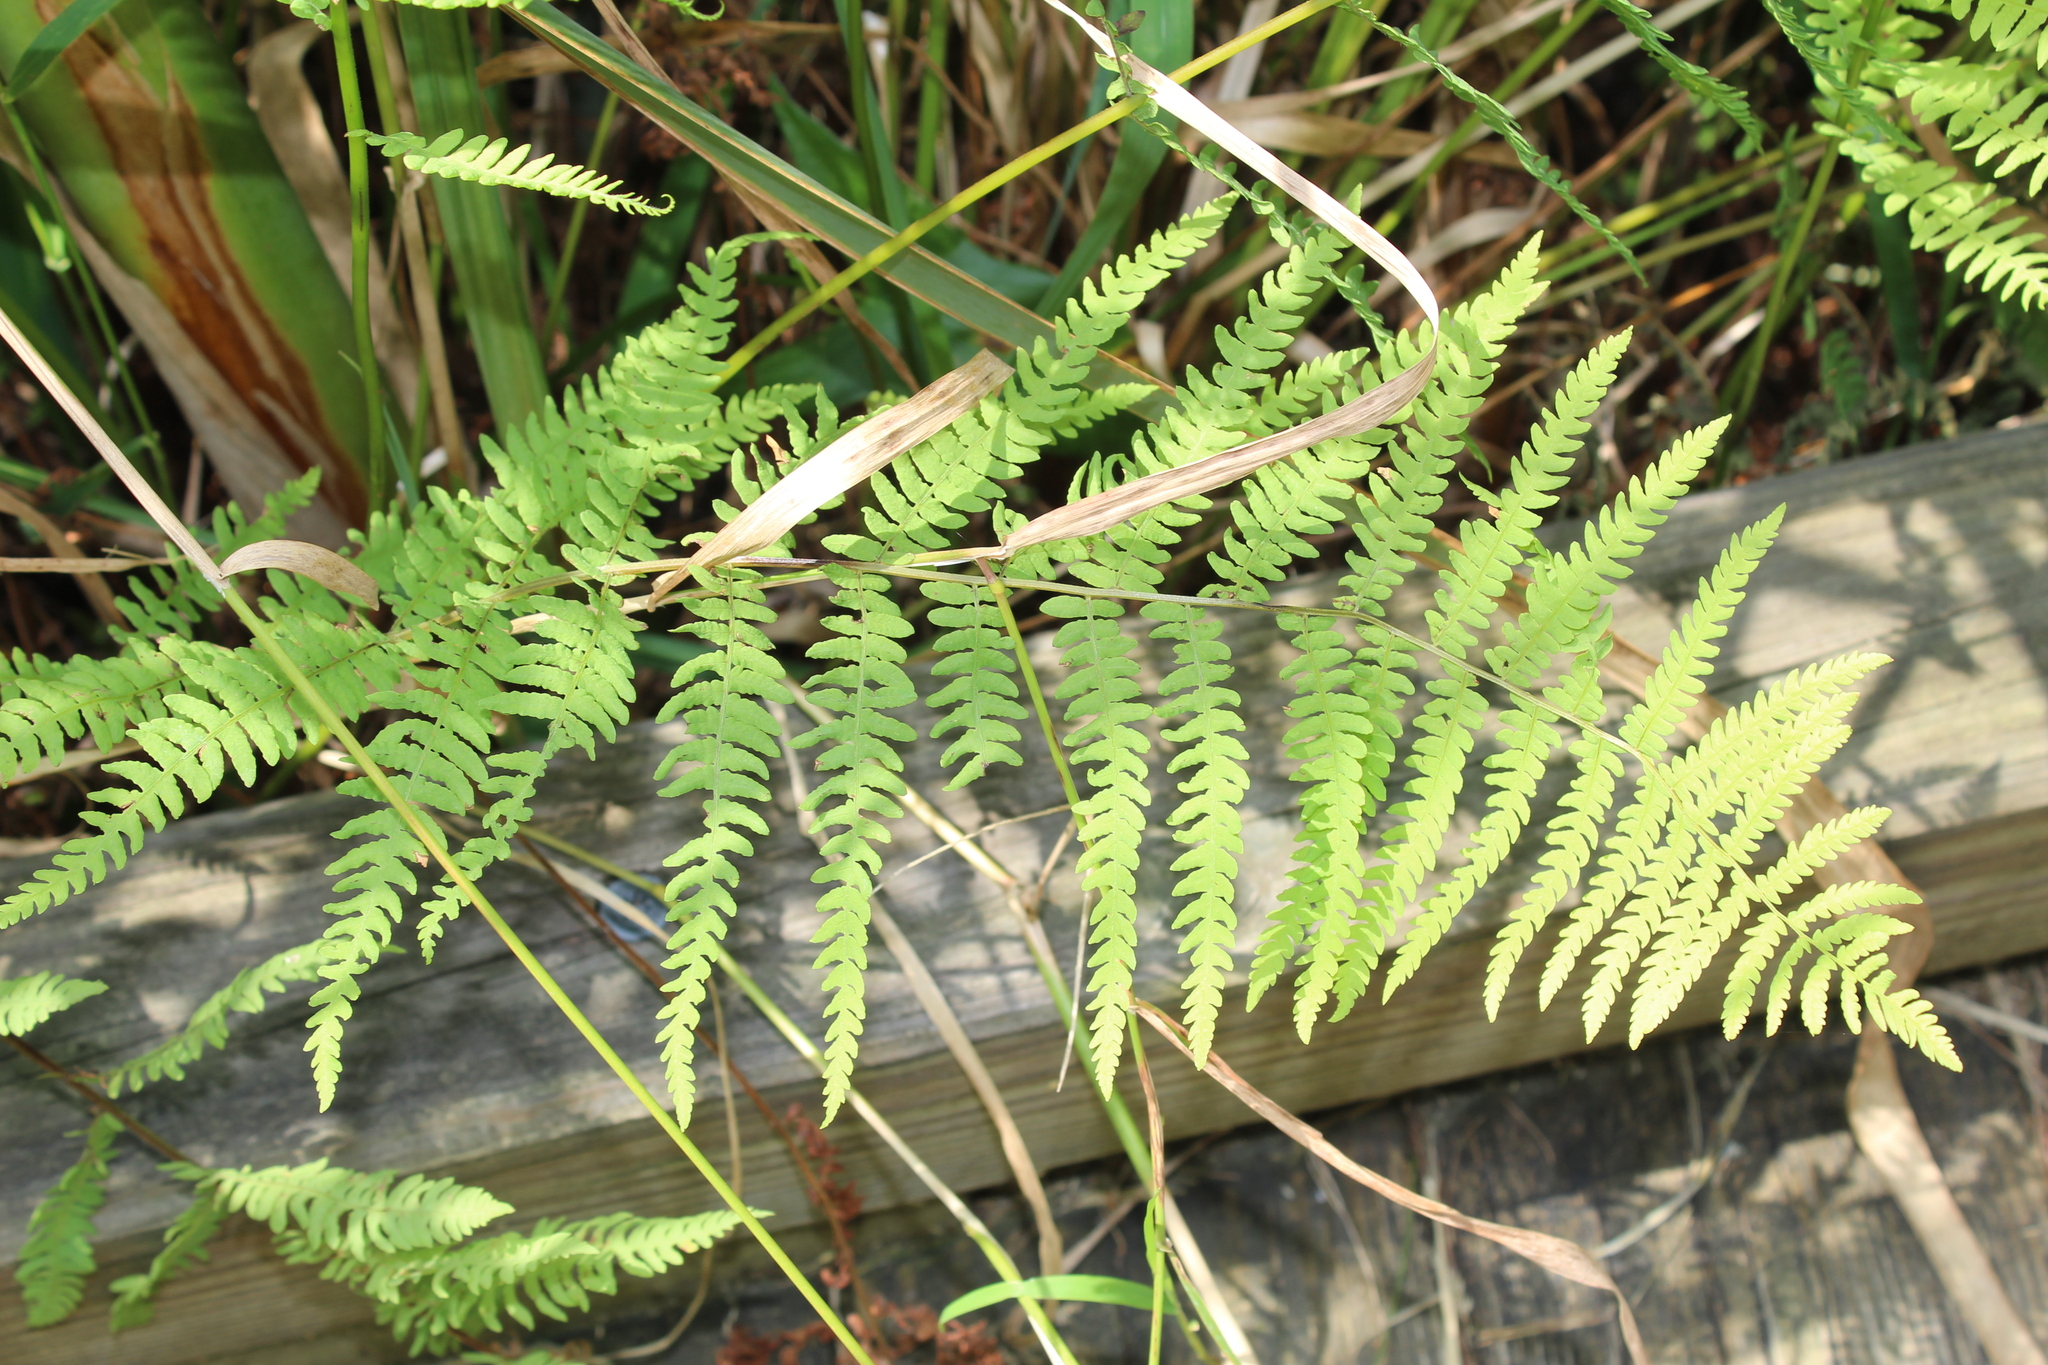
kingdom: Plantae
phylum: Tracheophyta
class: Polypodiopsida
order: Polypodiales
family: Thelypteridaceae
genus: Thelypteris
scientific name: Thelypteris palustris
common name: Marsh fern
